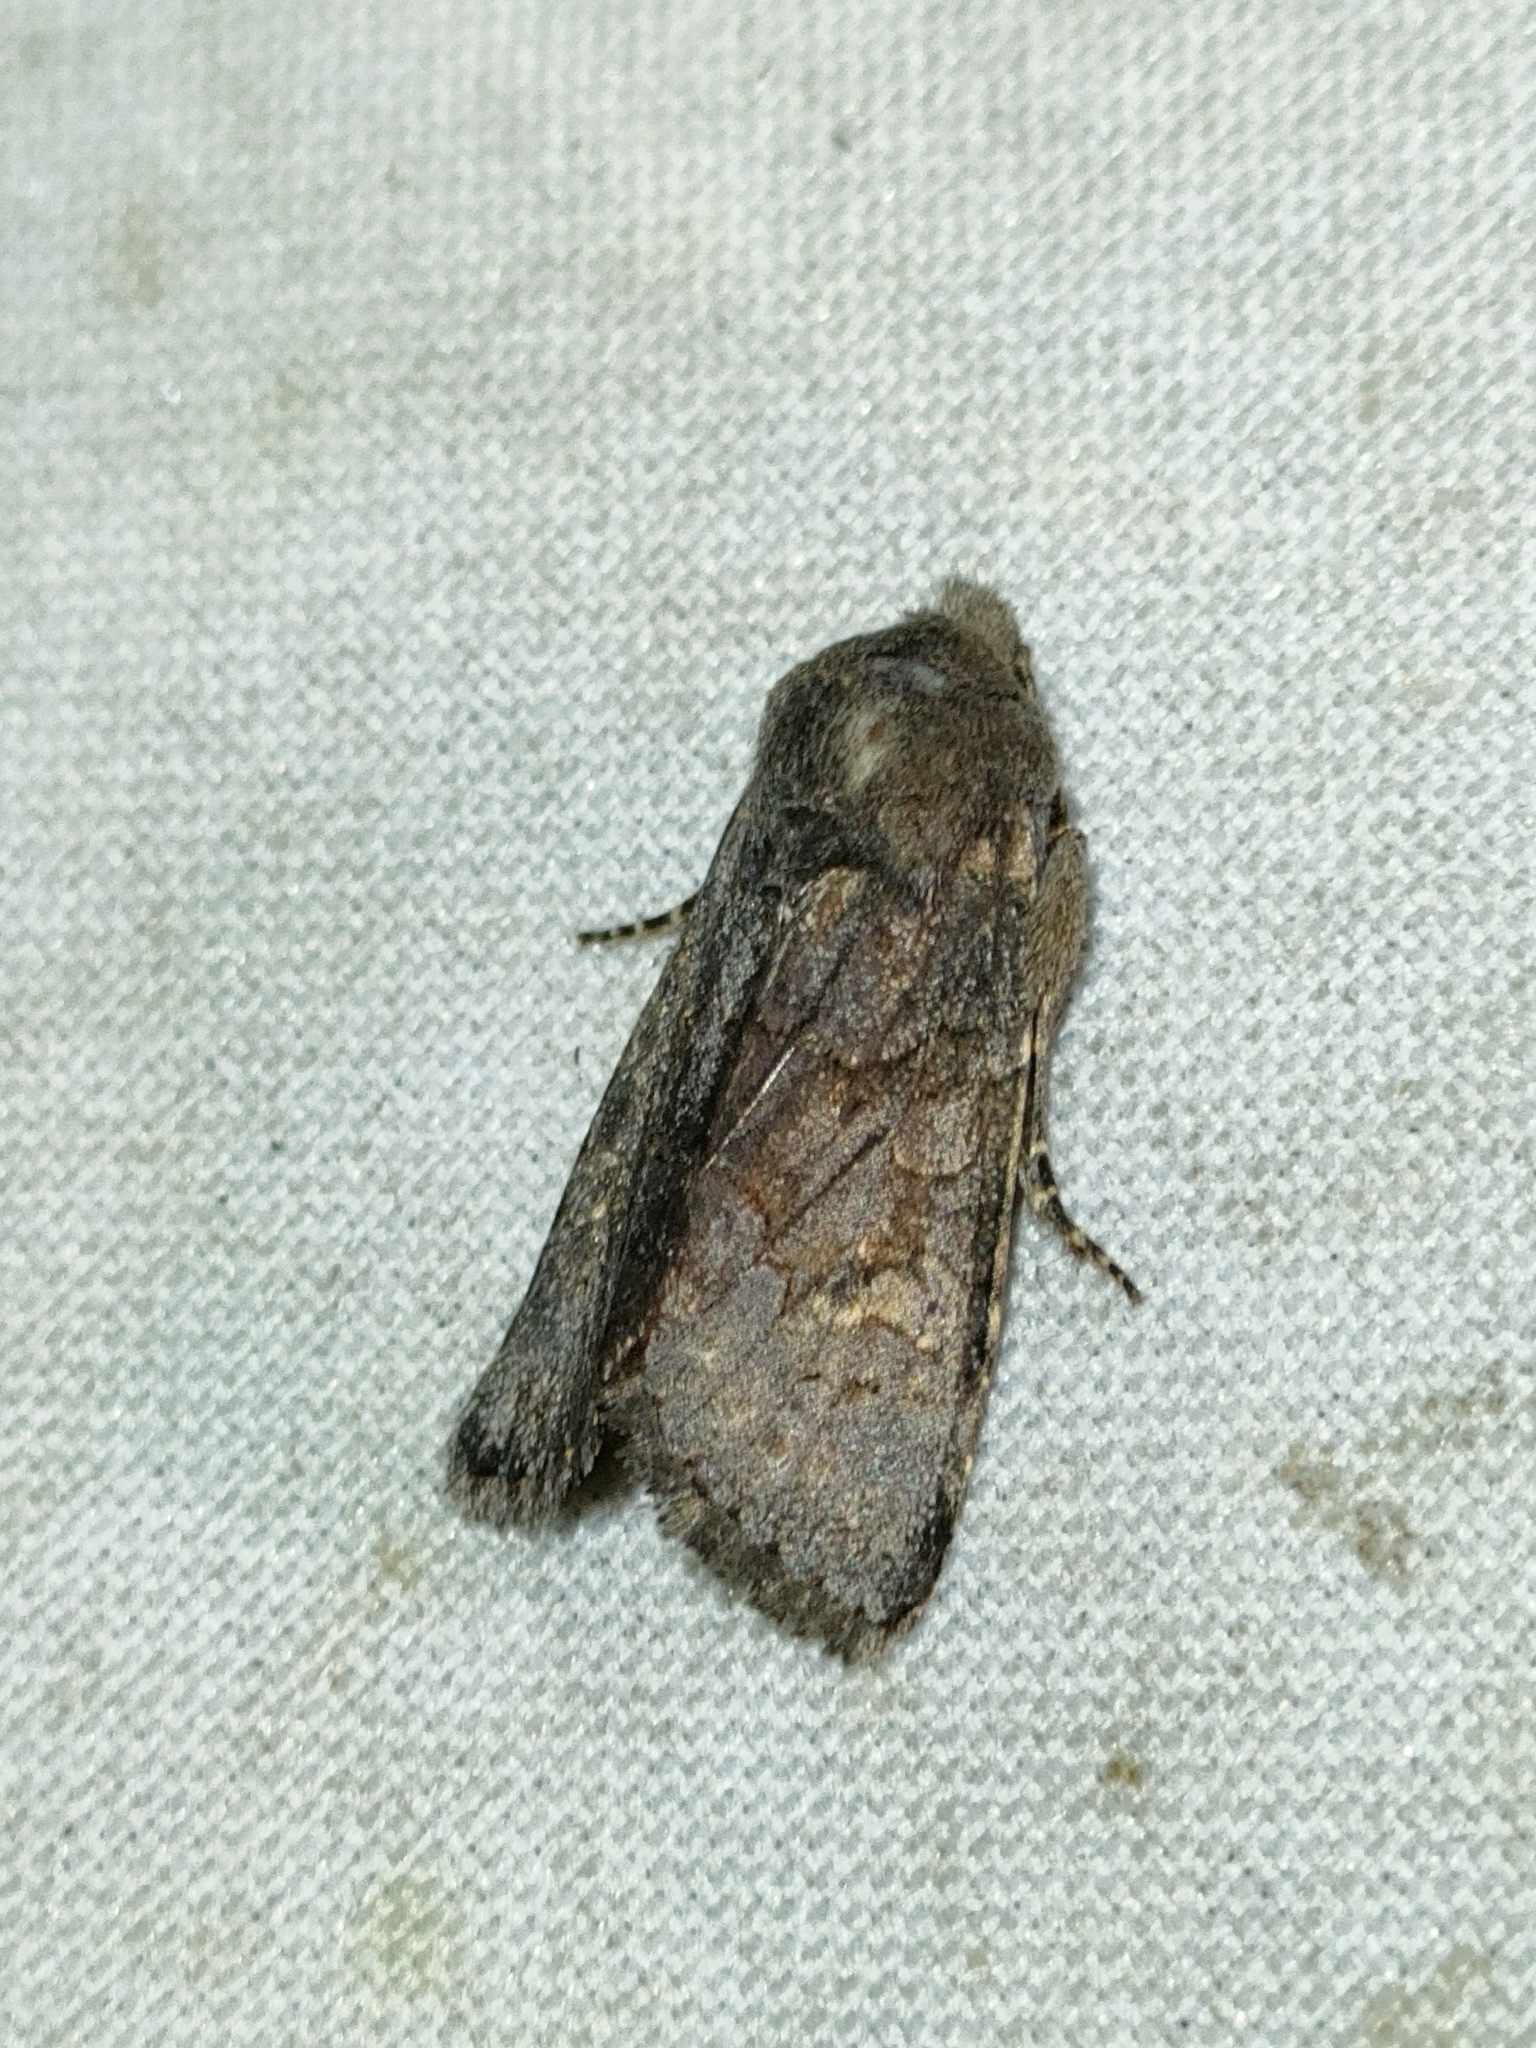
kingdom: Animalia
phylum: Arthropoda
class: Insecta
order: Lepidoptera
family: Noctuidae
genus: Aporophyla
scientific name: Aporophyla lueneburgensis
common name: Northern deep-brown dart
